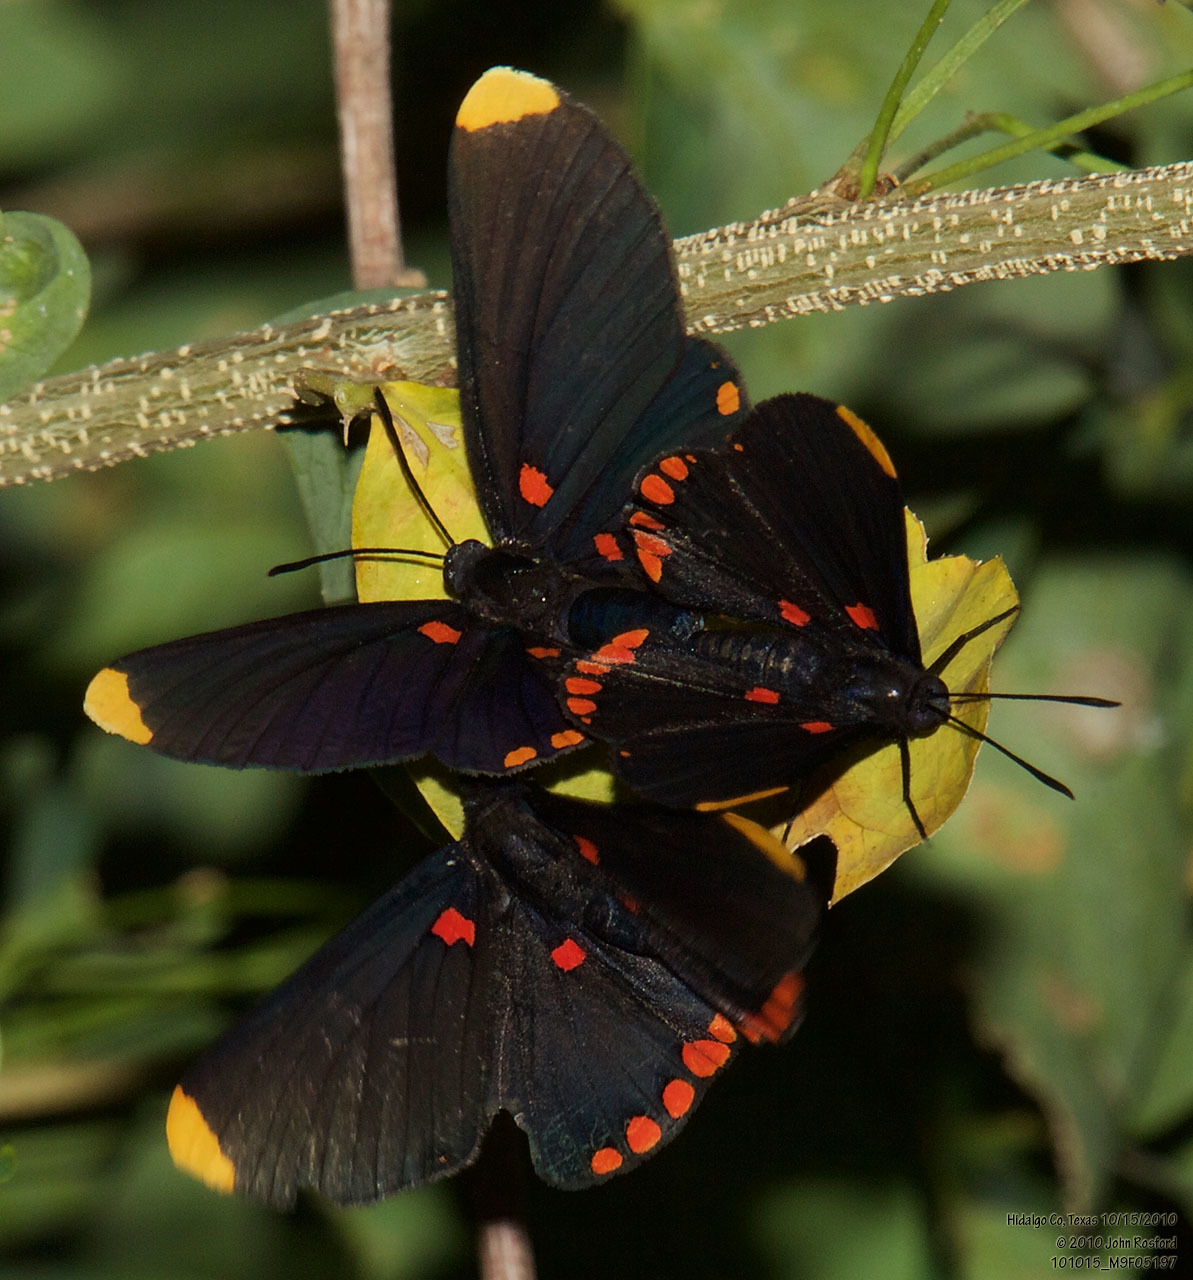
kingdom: Animalia
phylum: Arthropoda
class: Insecta
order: Lepidoptera
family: Lycaenidae
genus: Melanis
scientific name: Melanis pixe
